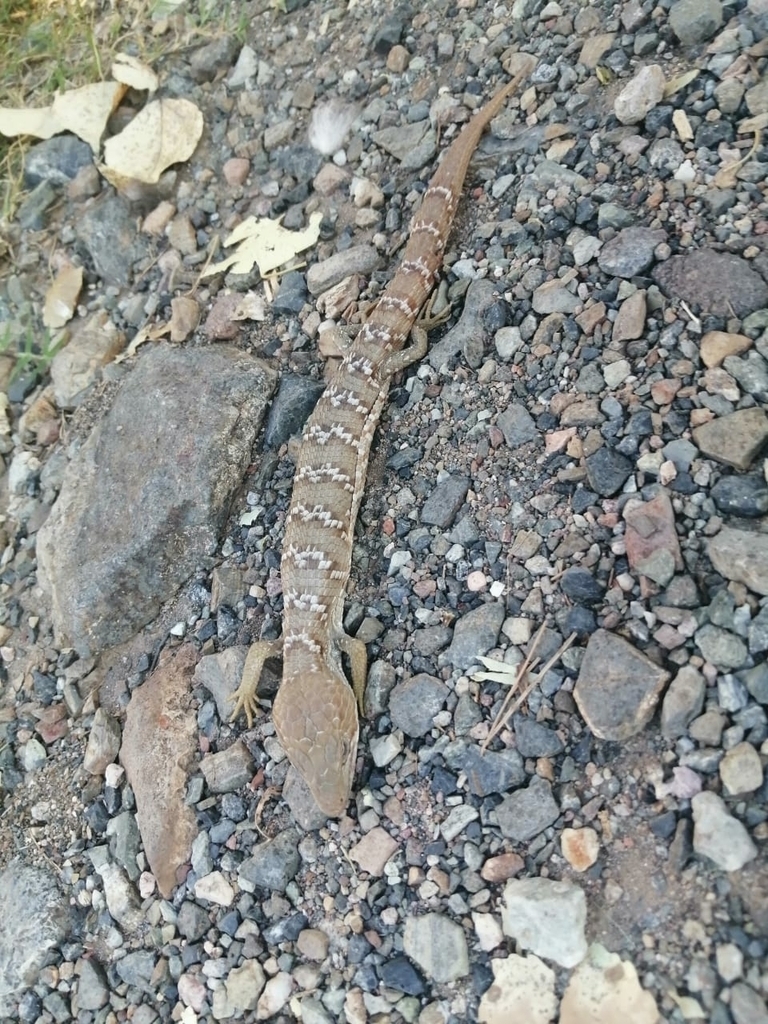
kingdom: Animalia
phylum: Chordata
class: Squamata
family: Anguidae
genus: Gerrhonotus
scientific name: Gerrhonotus infernalis
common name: Texas alligator lizard
